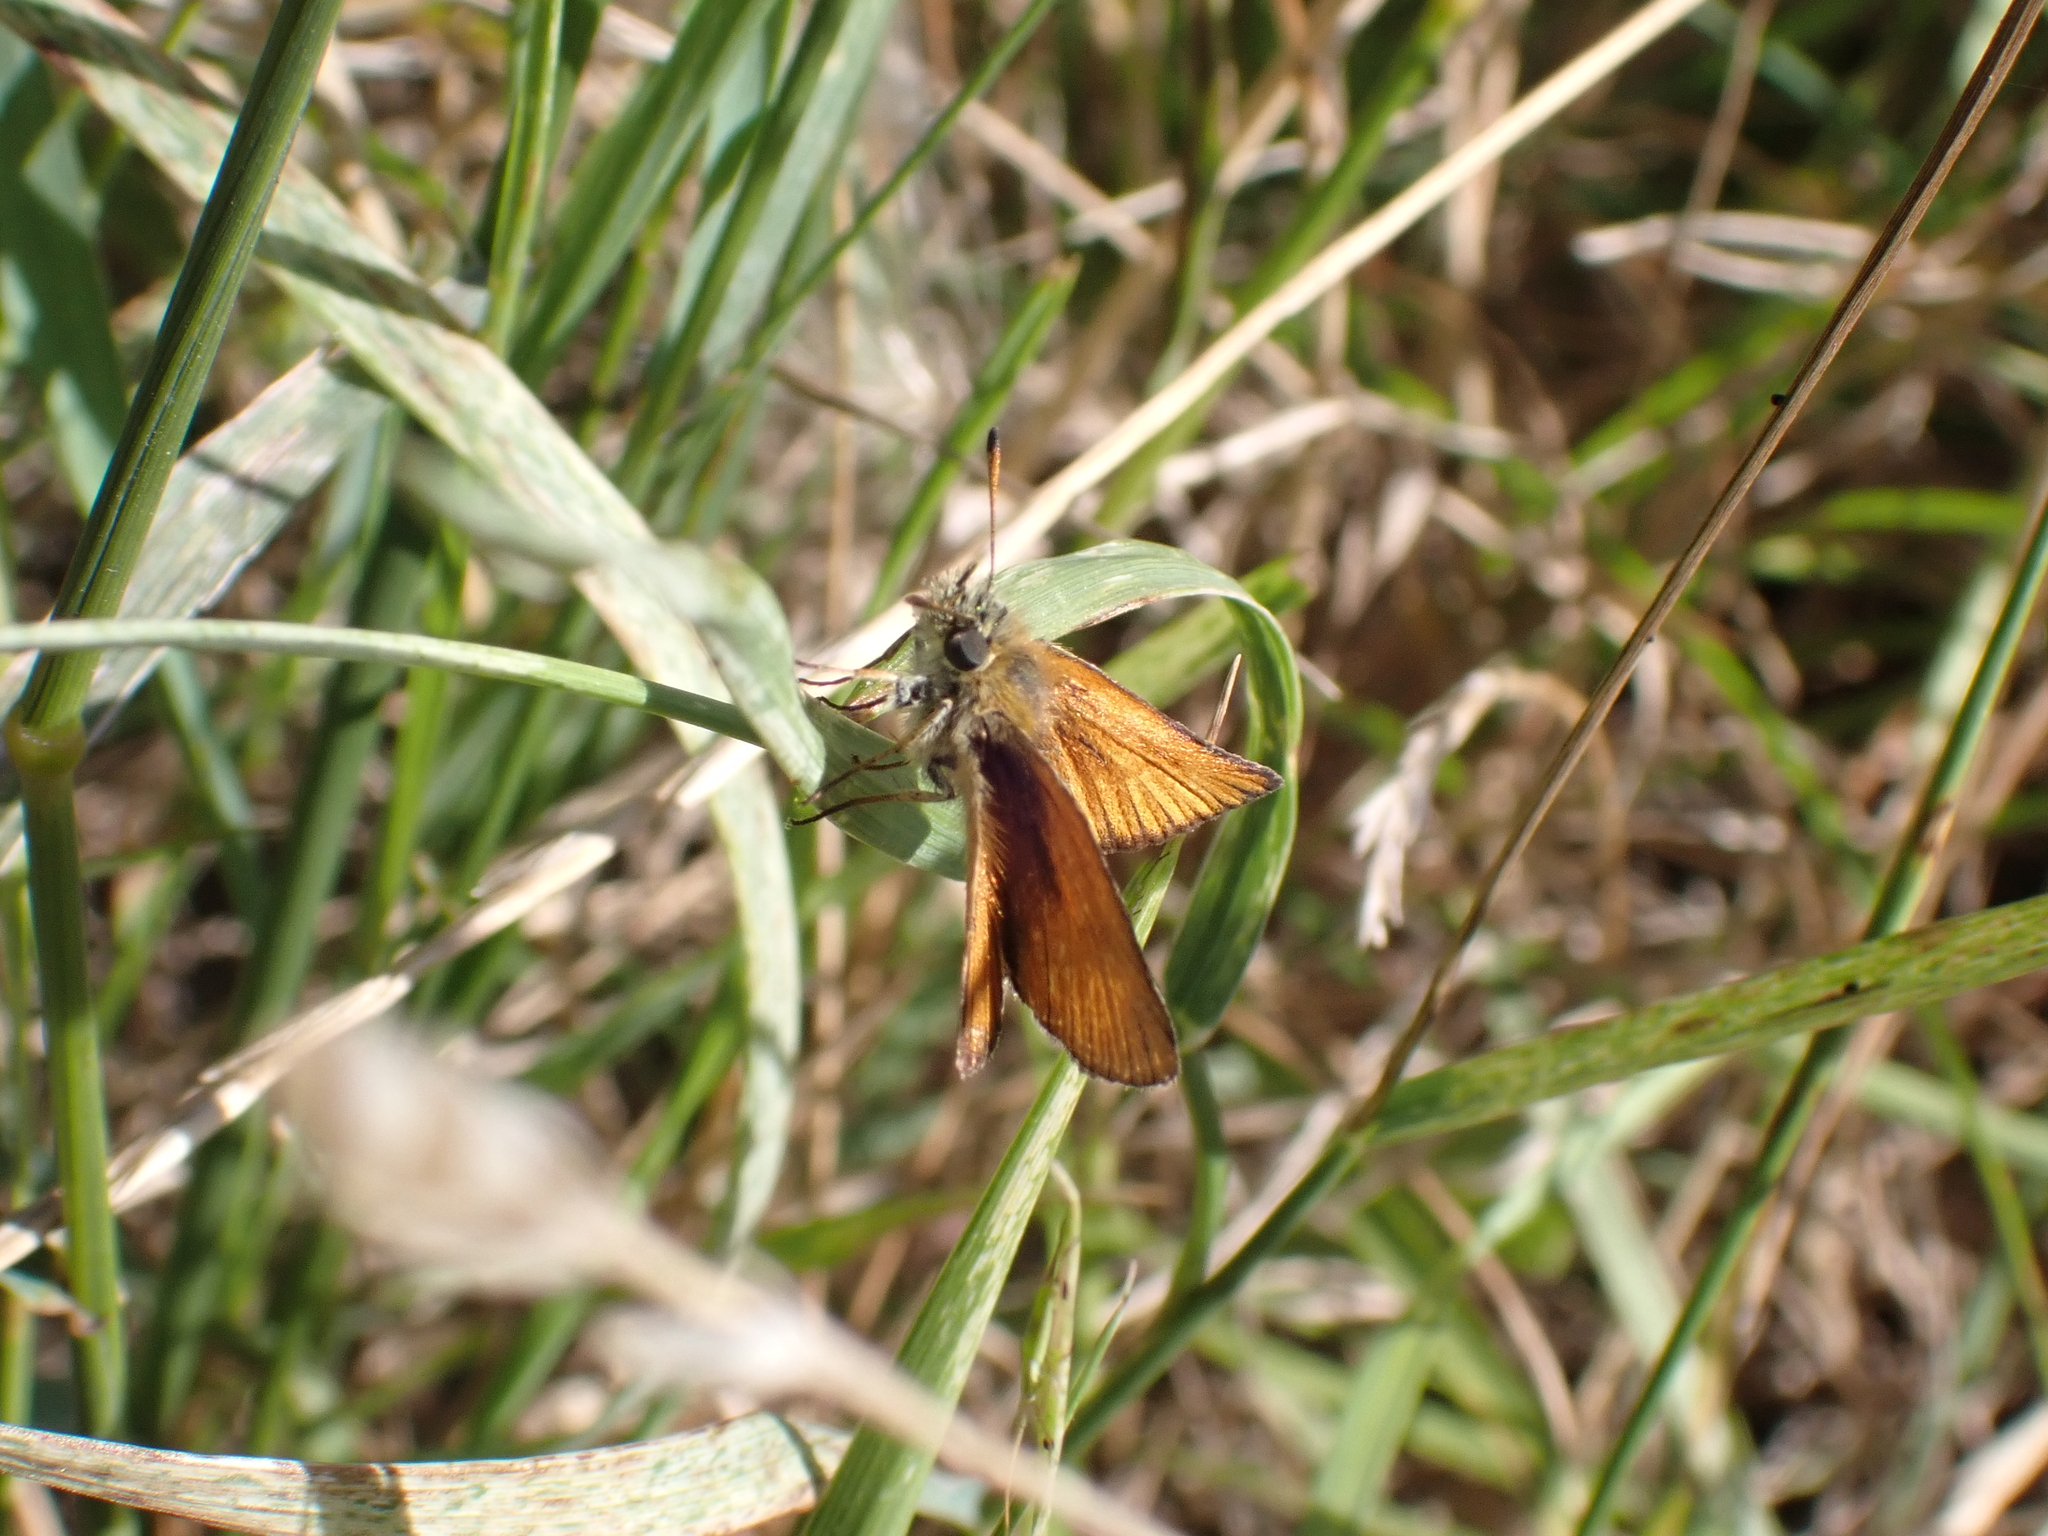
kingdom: Animalia
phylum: Arthropoda
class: Insecta
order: Lepidoptera
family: Hesperiidae
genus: Thymelicus
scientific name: Thymelicus lineola
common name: Essex skipper
